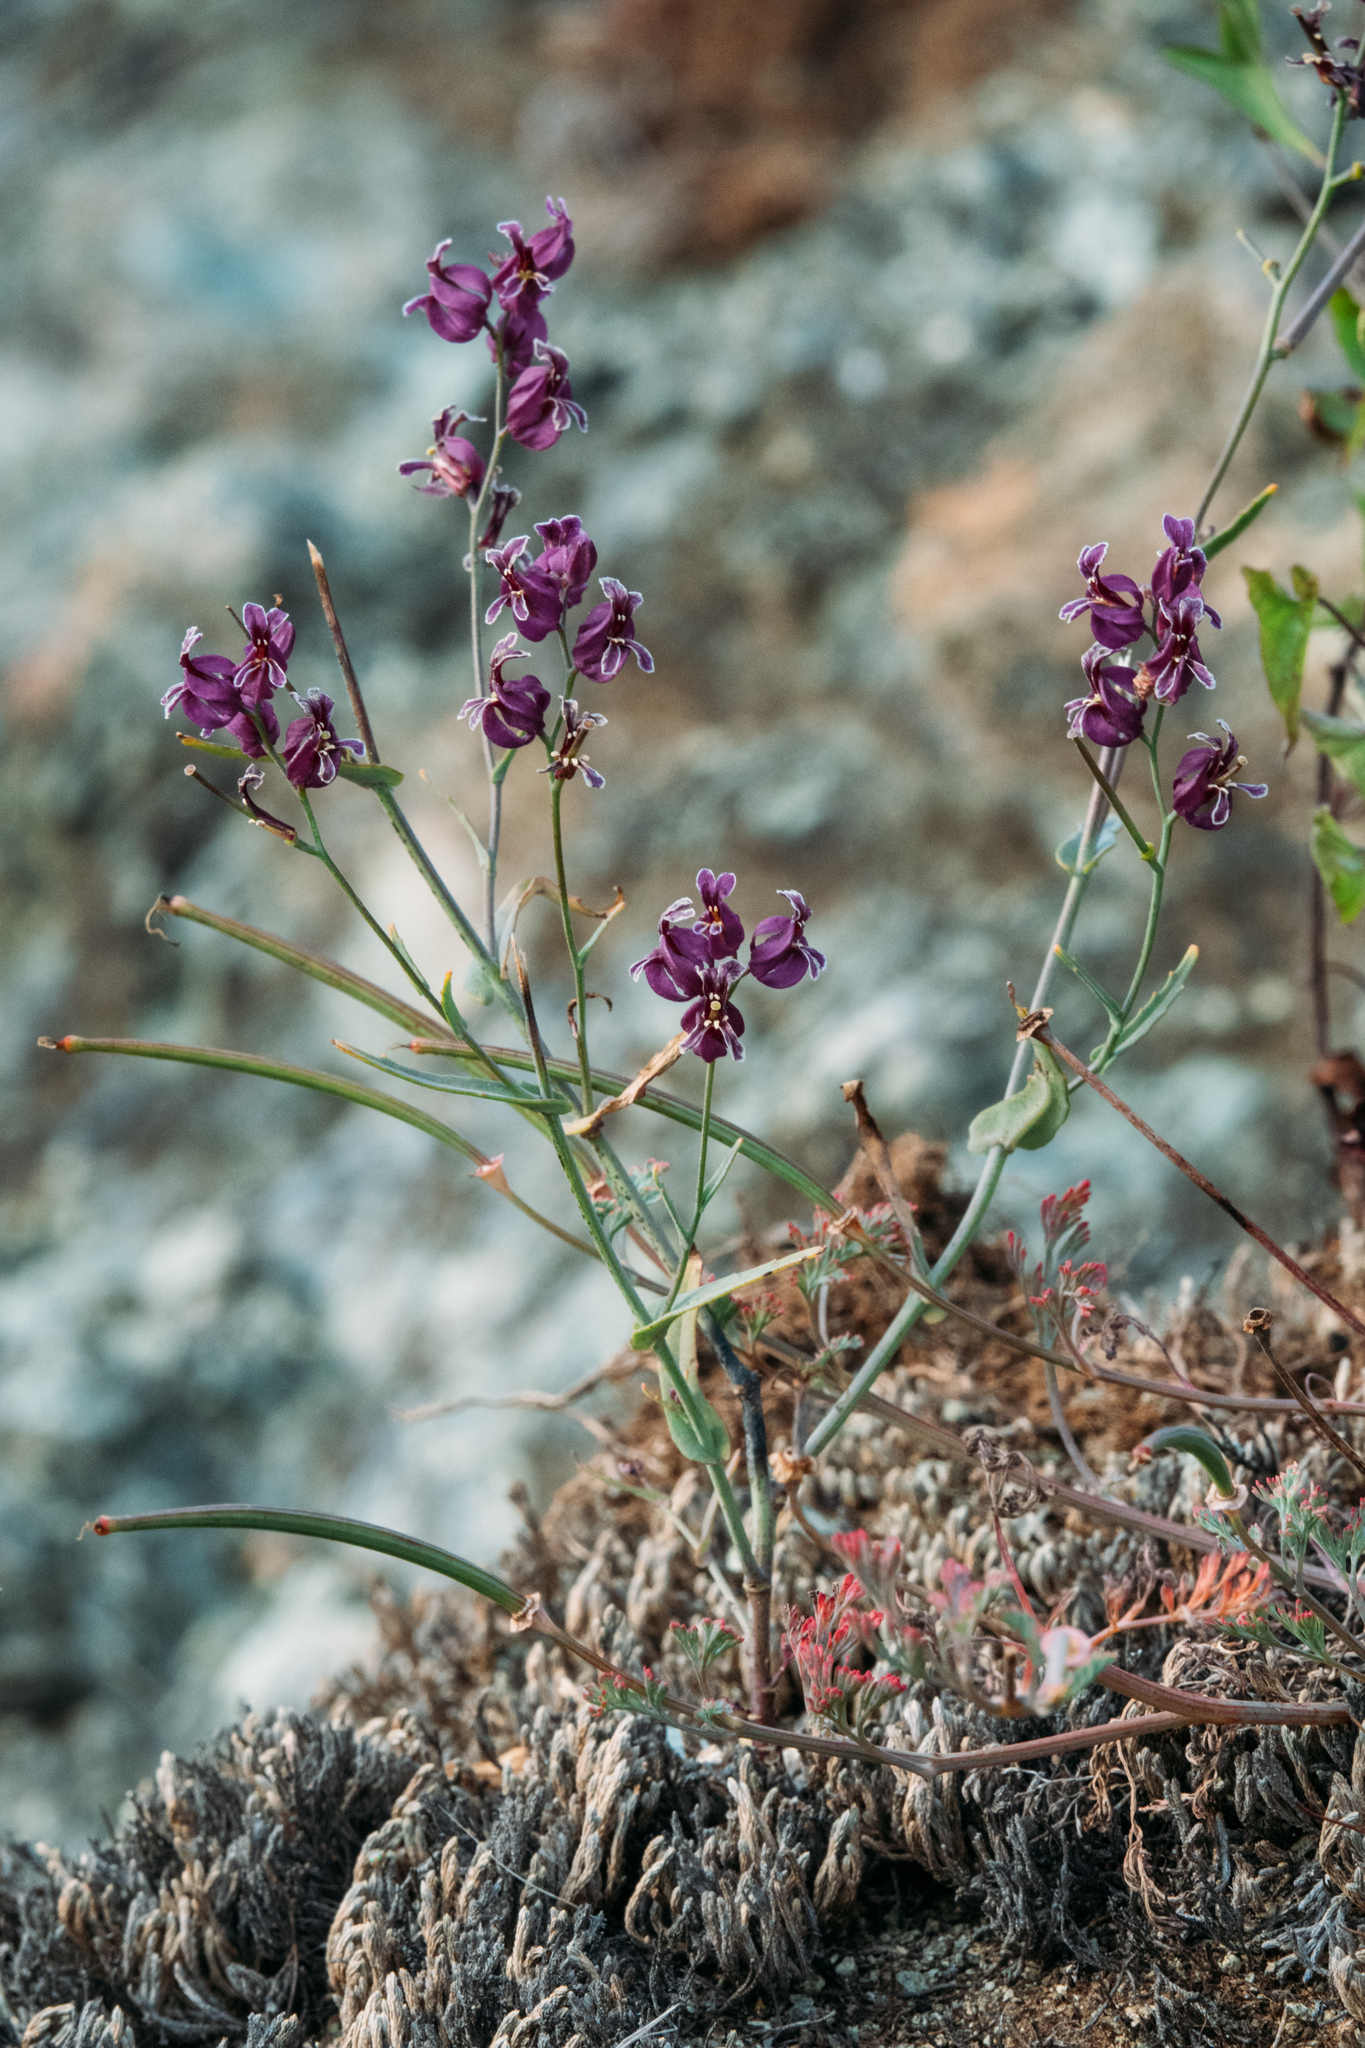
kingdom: Plantae
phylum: Tracheophyta
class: Magnoliopsida
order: Brassicales
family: Brassicaceae
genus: Streptanthus
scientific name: Streptanthus glandulosus
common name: Jewel-flower
